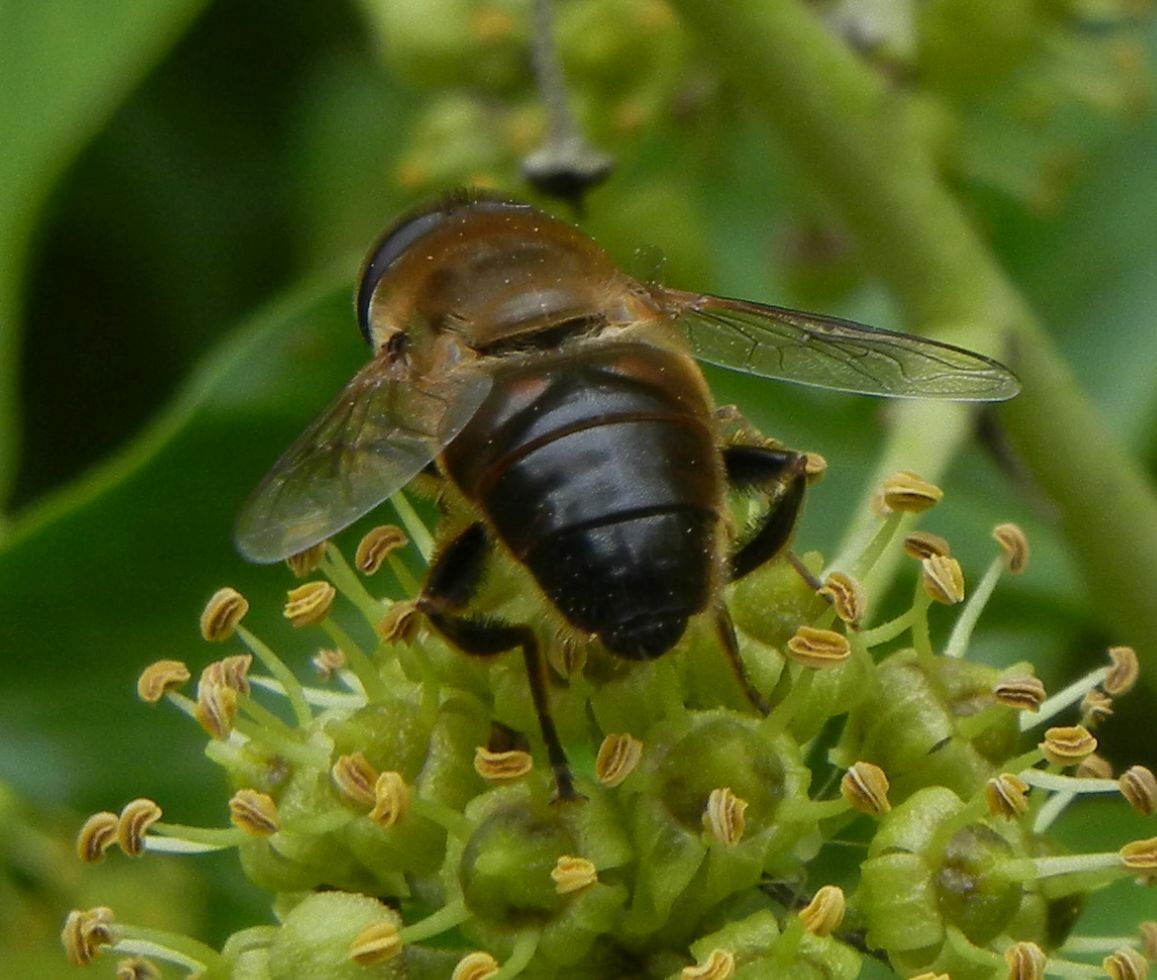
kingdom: Animalia
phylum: Arthropoda
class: Insecta
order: Diptera
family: Syrphidae
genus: Eristalis
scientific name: Eristalis tenax
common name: Drone fly
